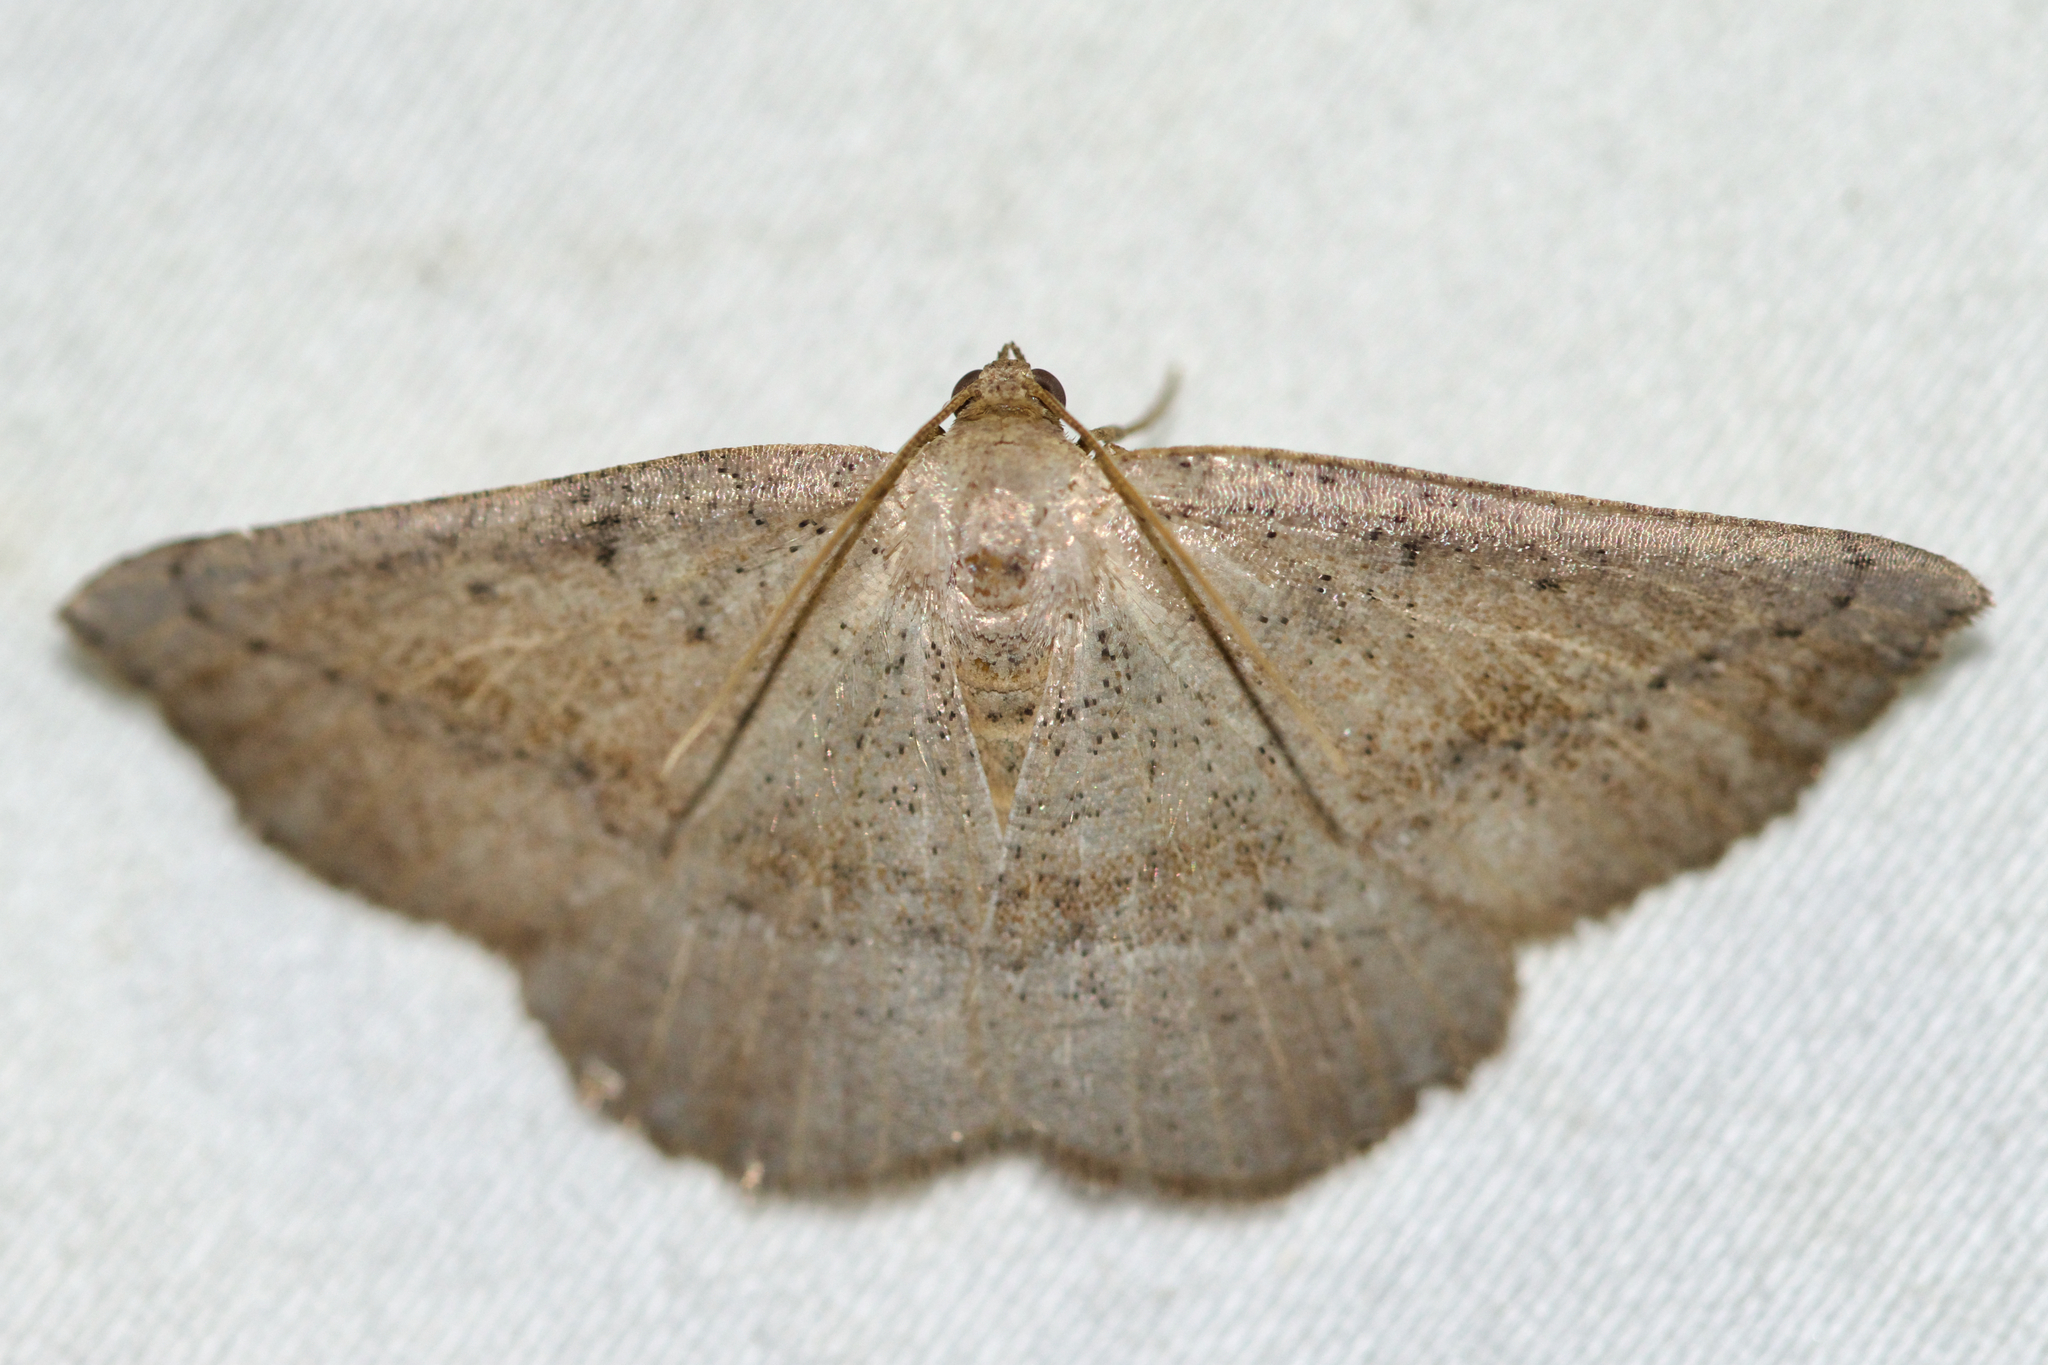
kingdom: Animalia
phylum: Arthropoda
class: Insecta
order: Lepidoptera
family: Geometridae
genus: Tacparia
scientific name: Tacparia atropunctata
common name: Northern pale alder
